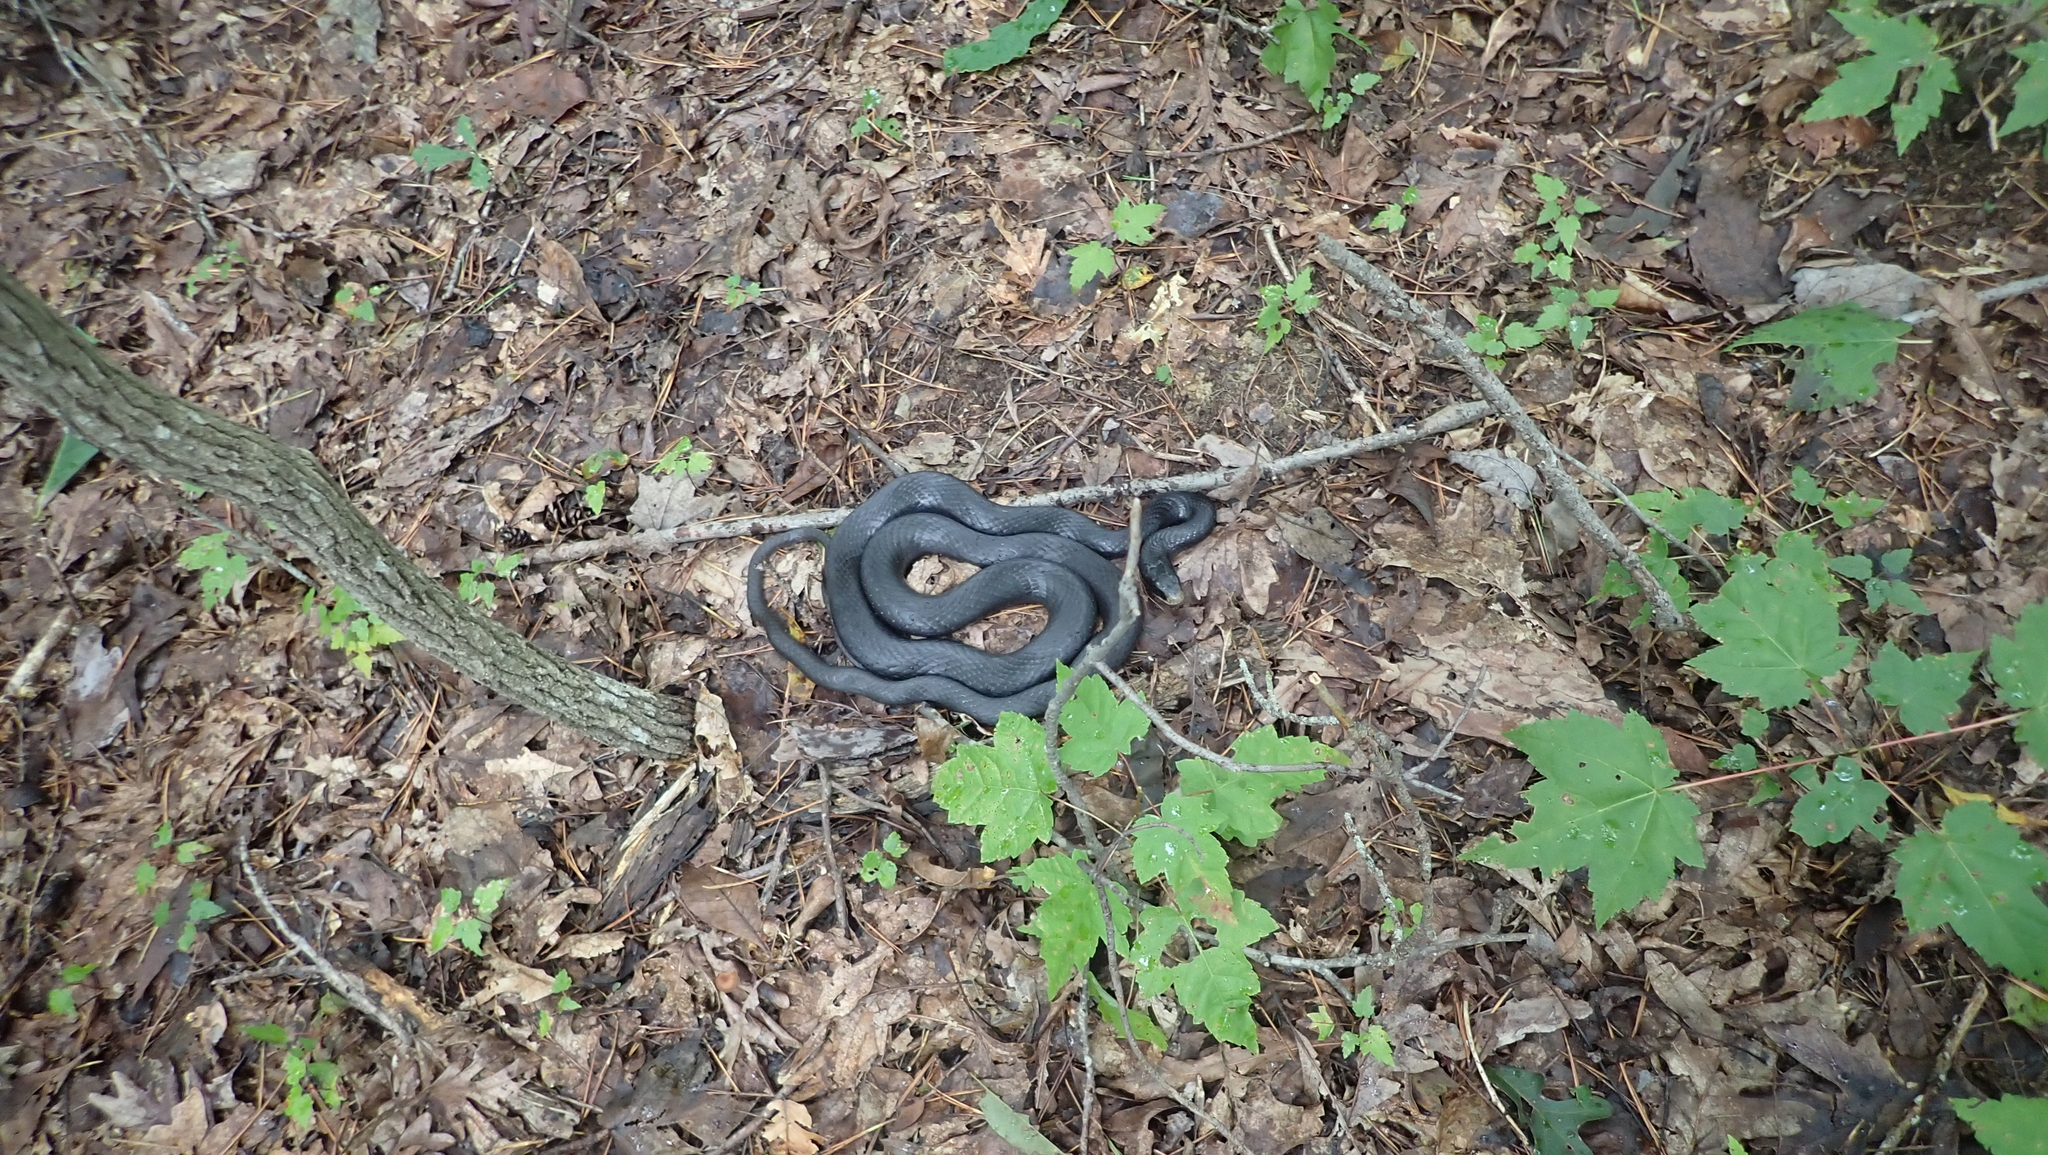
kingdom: Animalia
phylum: Chordata
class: Squamata
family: Colubridae
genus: Coluber
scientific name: Coluber constrictor
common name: Eastern racer
